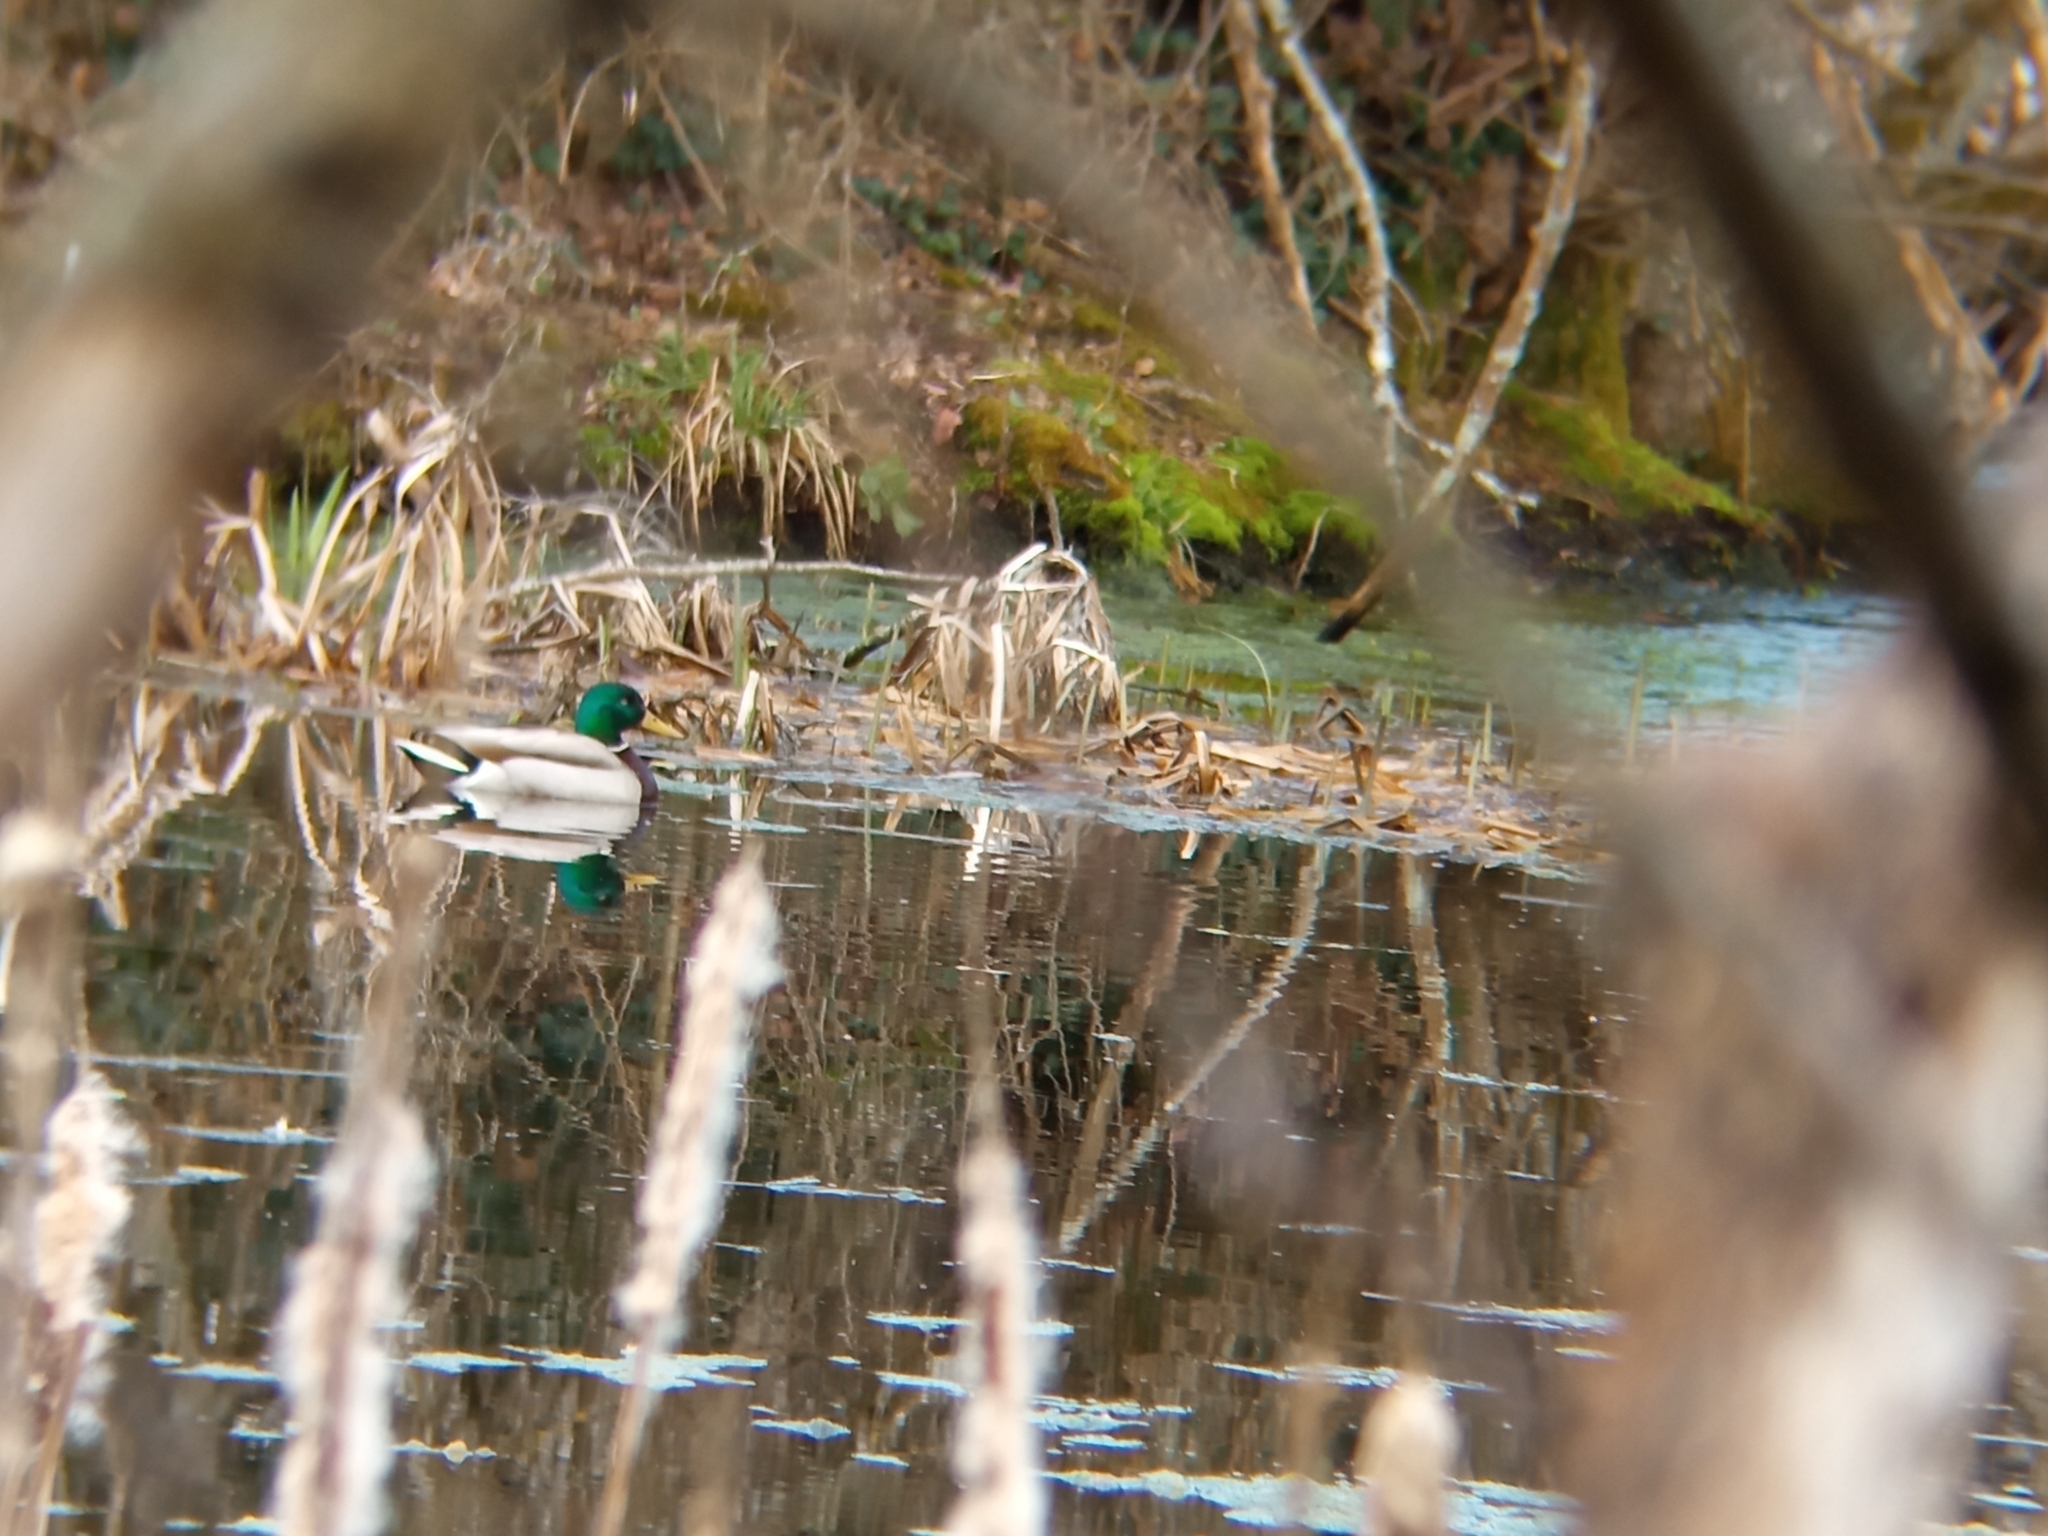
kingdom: Animalia
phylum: Chordata
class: Aves
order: Anseriformes
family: Anatidae
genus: Anas
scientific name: Anas platyrhynchos
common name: Mallard
